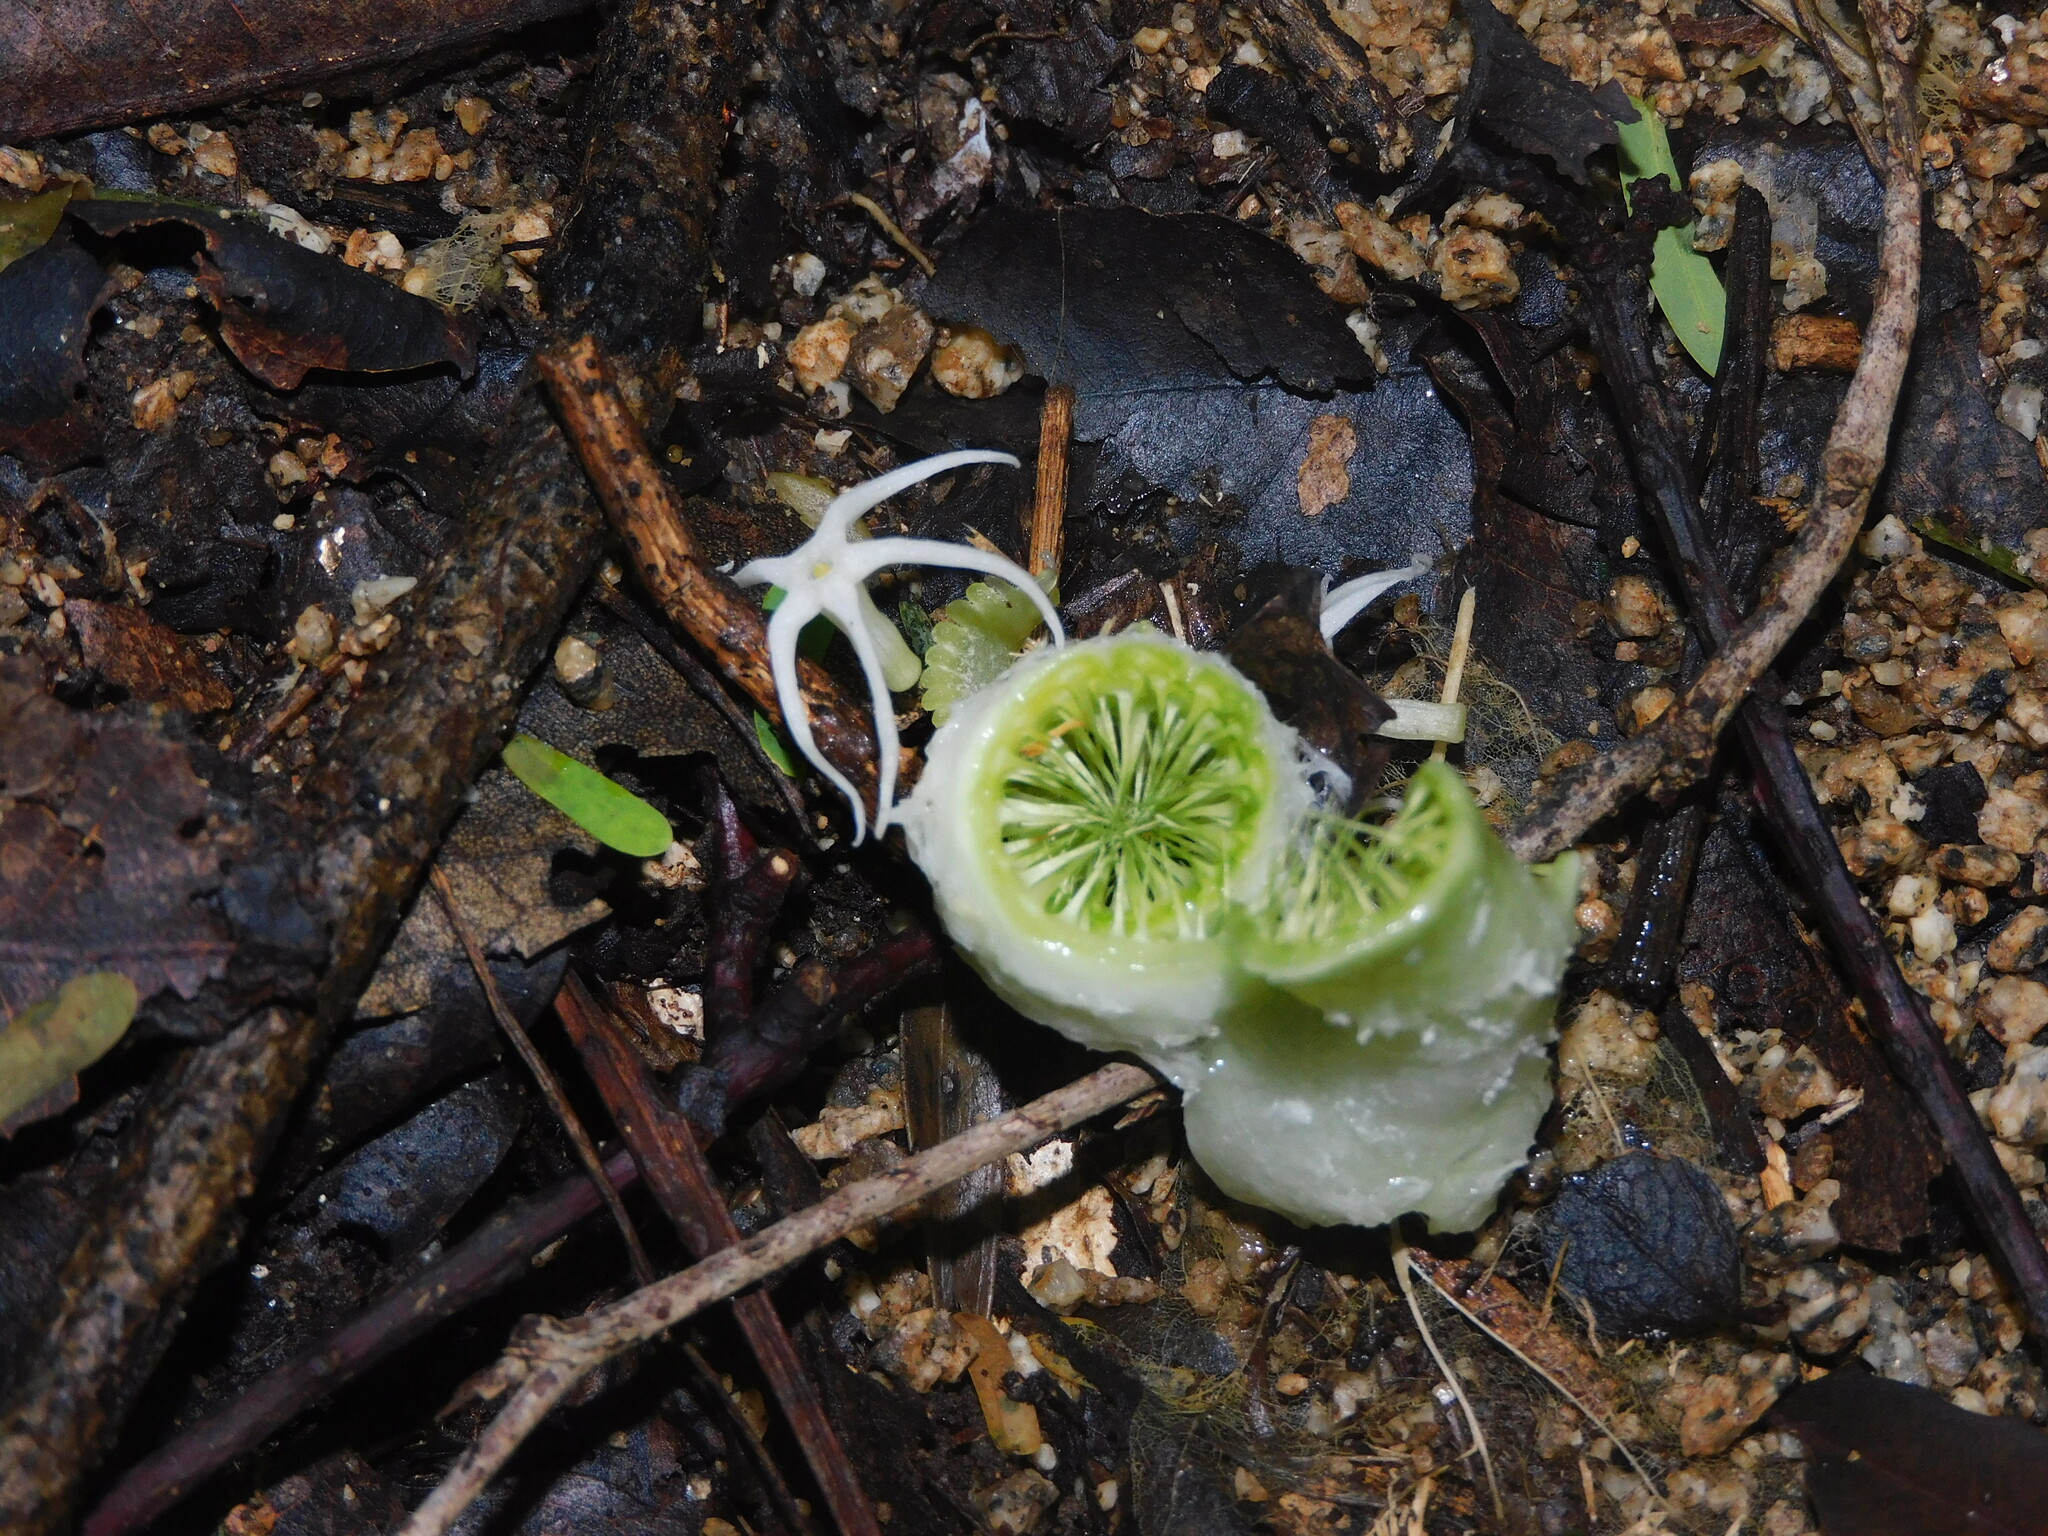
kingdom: Plantae
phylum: Tracheophyta
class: Magnoliopsida
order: Cucurbitales
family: Cucurbitaceae
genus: Cyclanthera
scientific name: Cyclanthera carthagenensis
